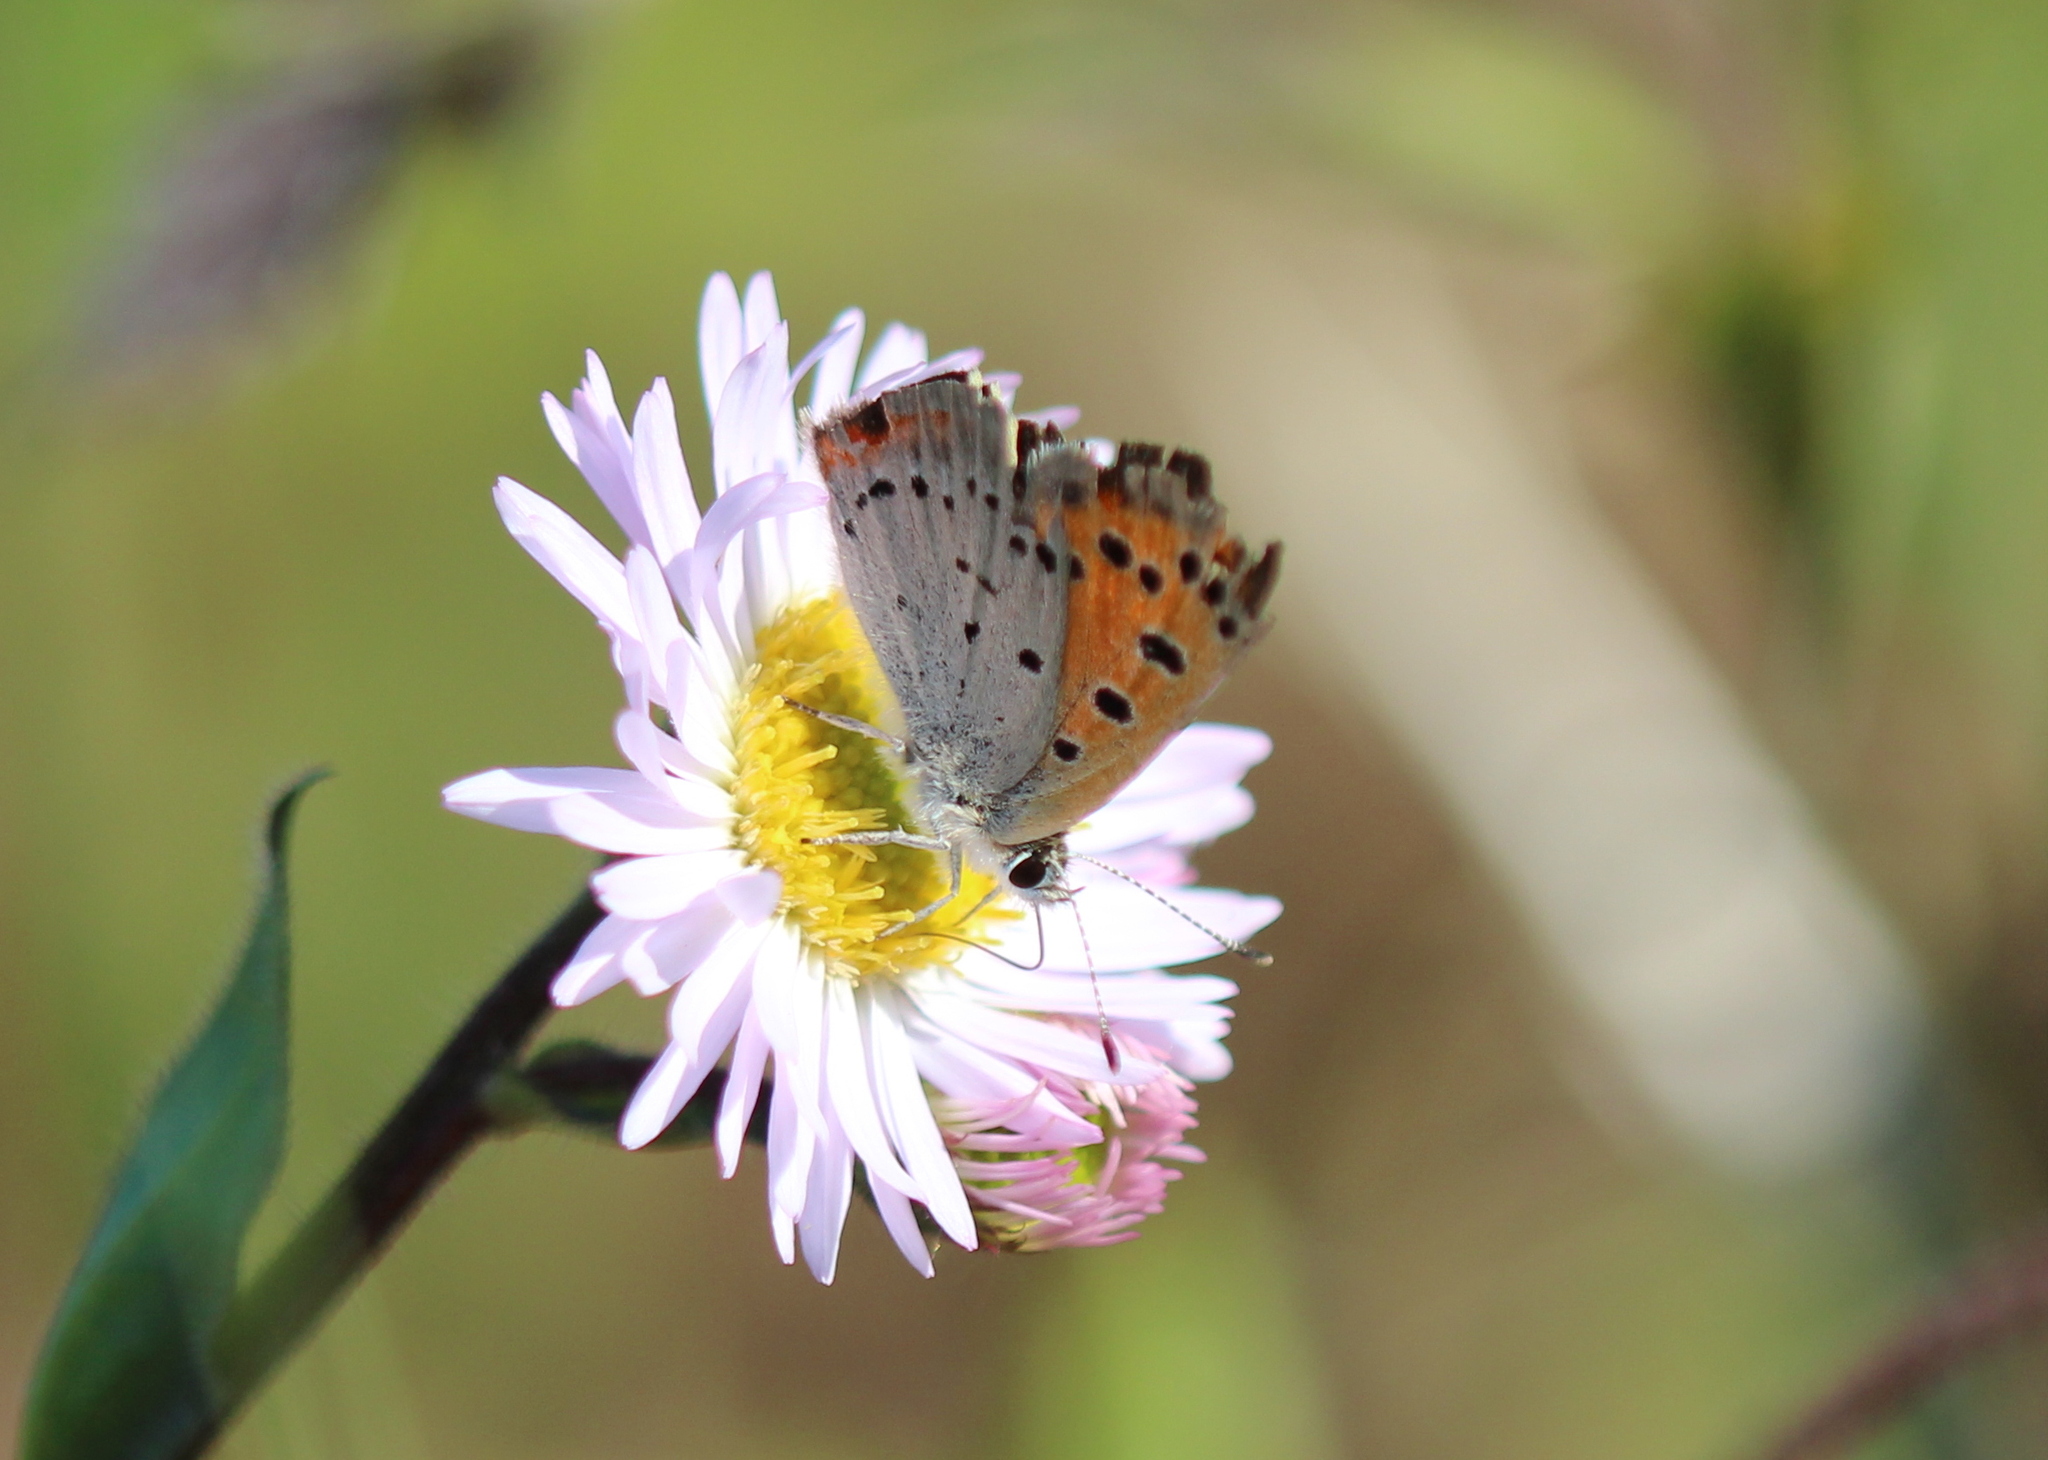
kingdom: Animalia
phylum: Arthropoda
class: Insecta
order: Lepidoptera
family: Lycaenidae
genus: Lycaena
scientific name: Lycaena hypophlaeas
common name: American copper
